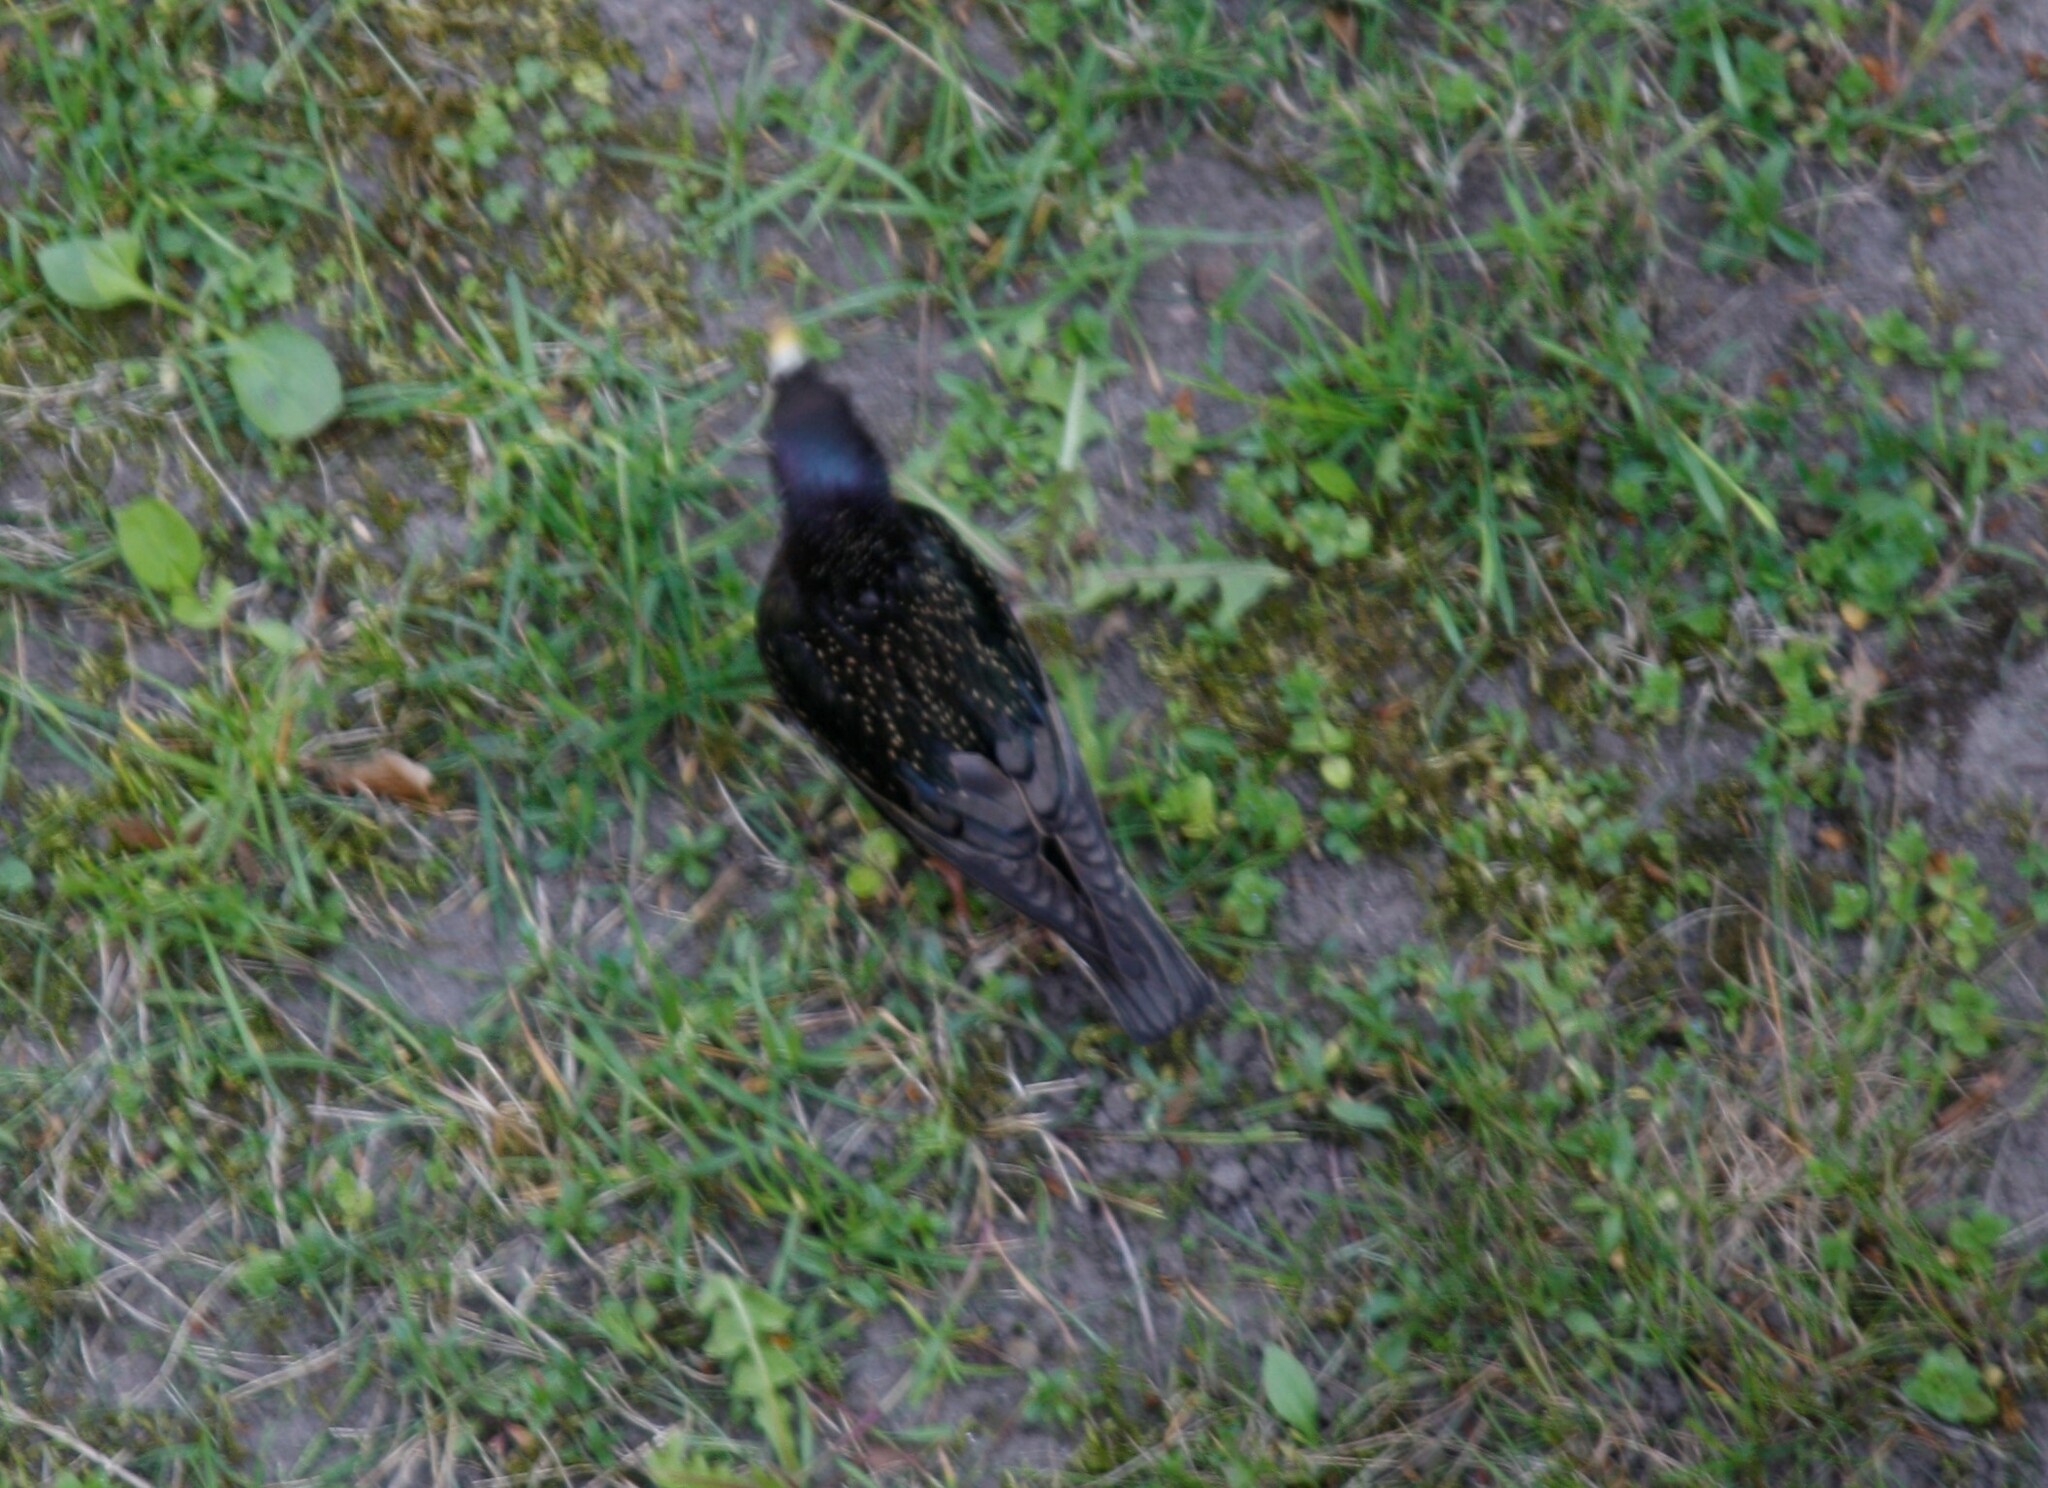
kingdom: Animalia
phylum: Chordata
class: Aves
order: Passeriformes
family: Sturnidae
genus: Sturnus
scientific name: Sturnus vulgaris
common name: Common starling
